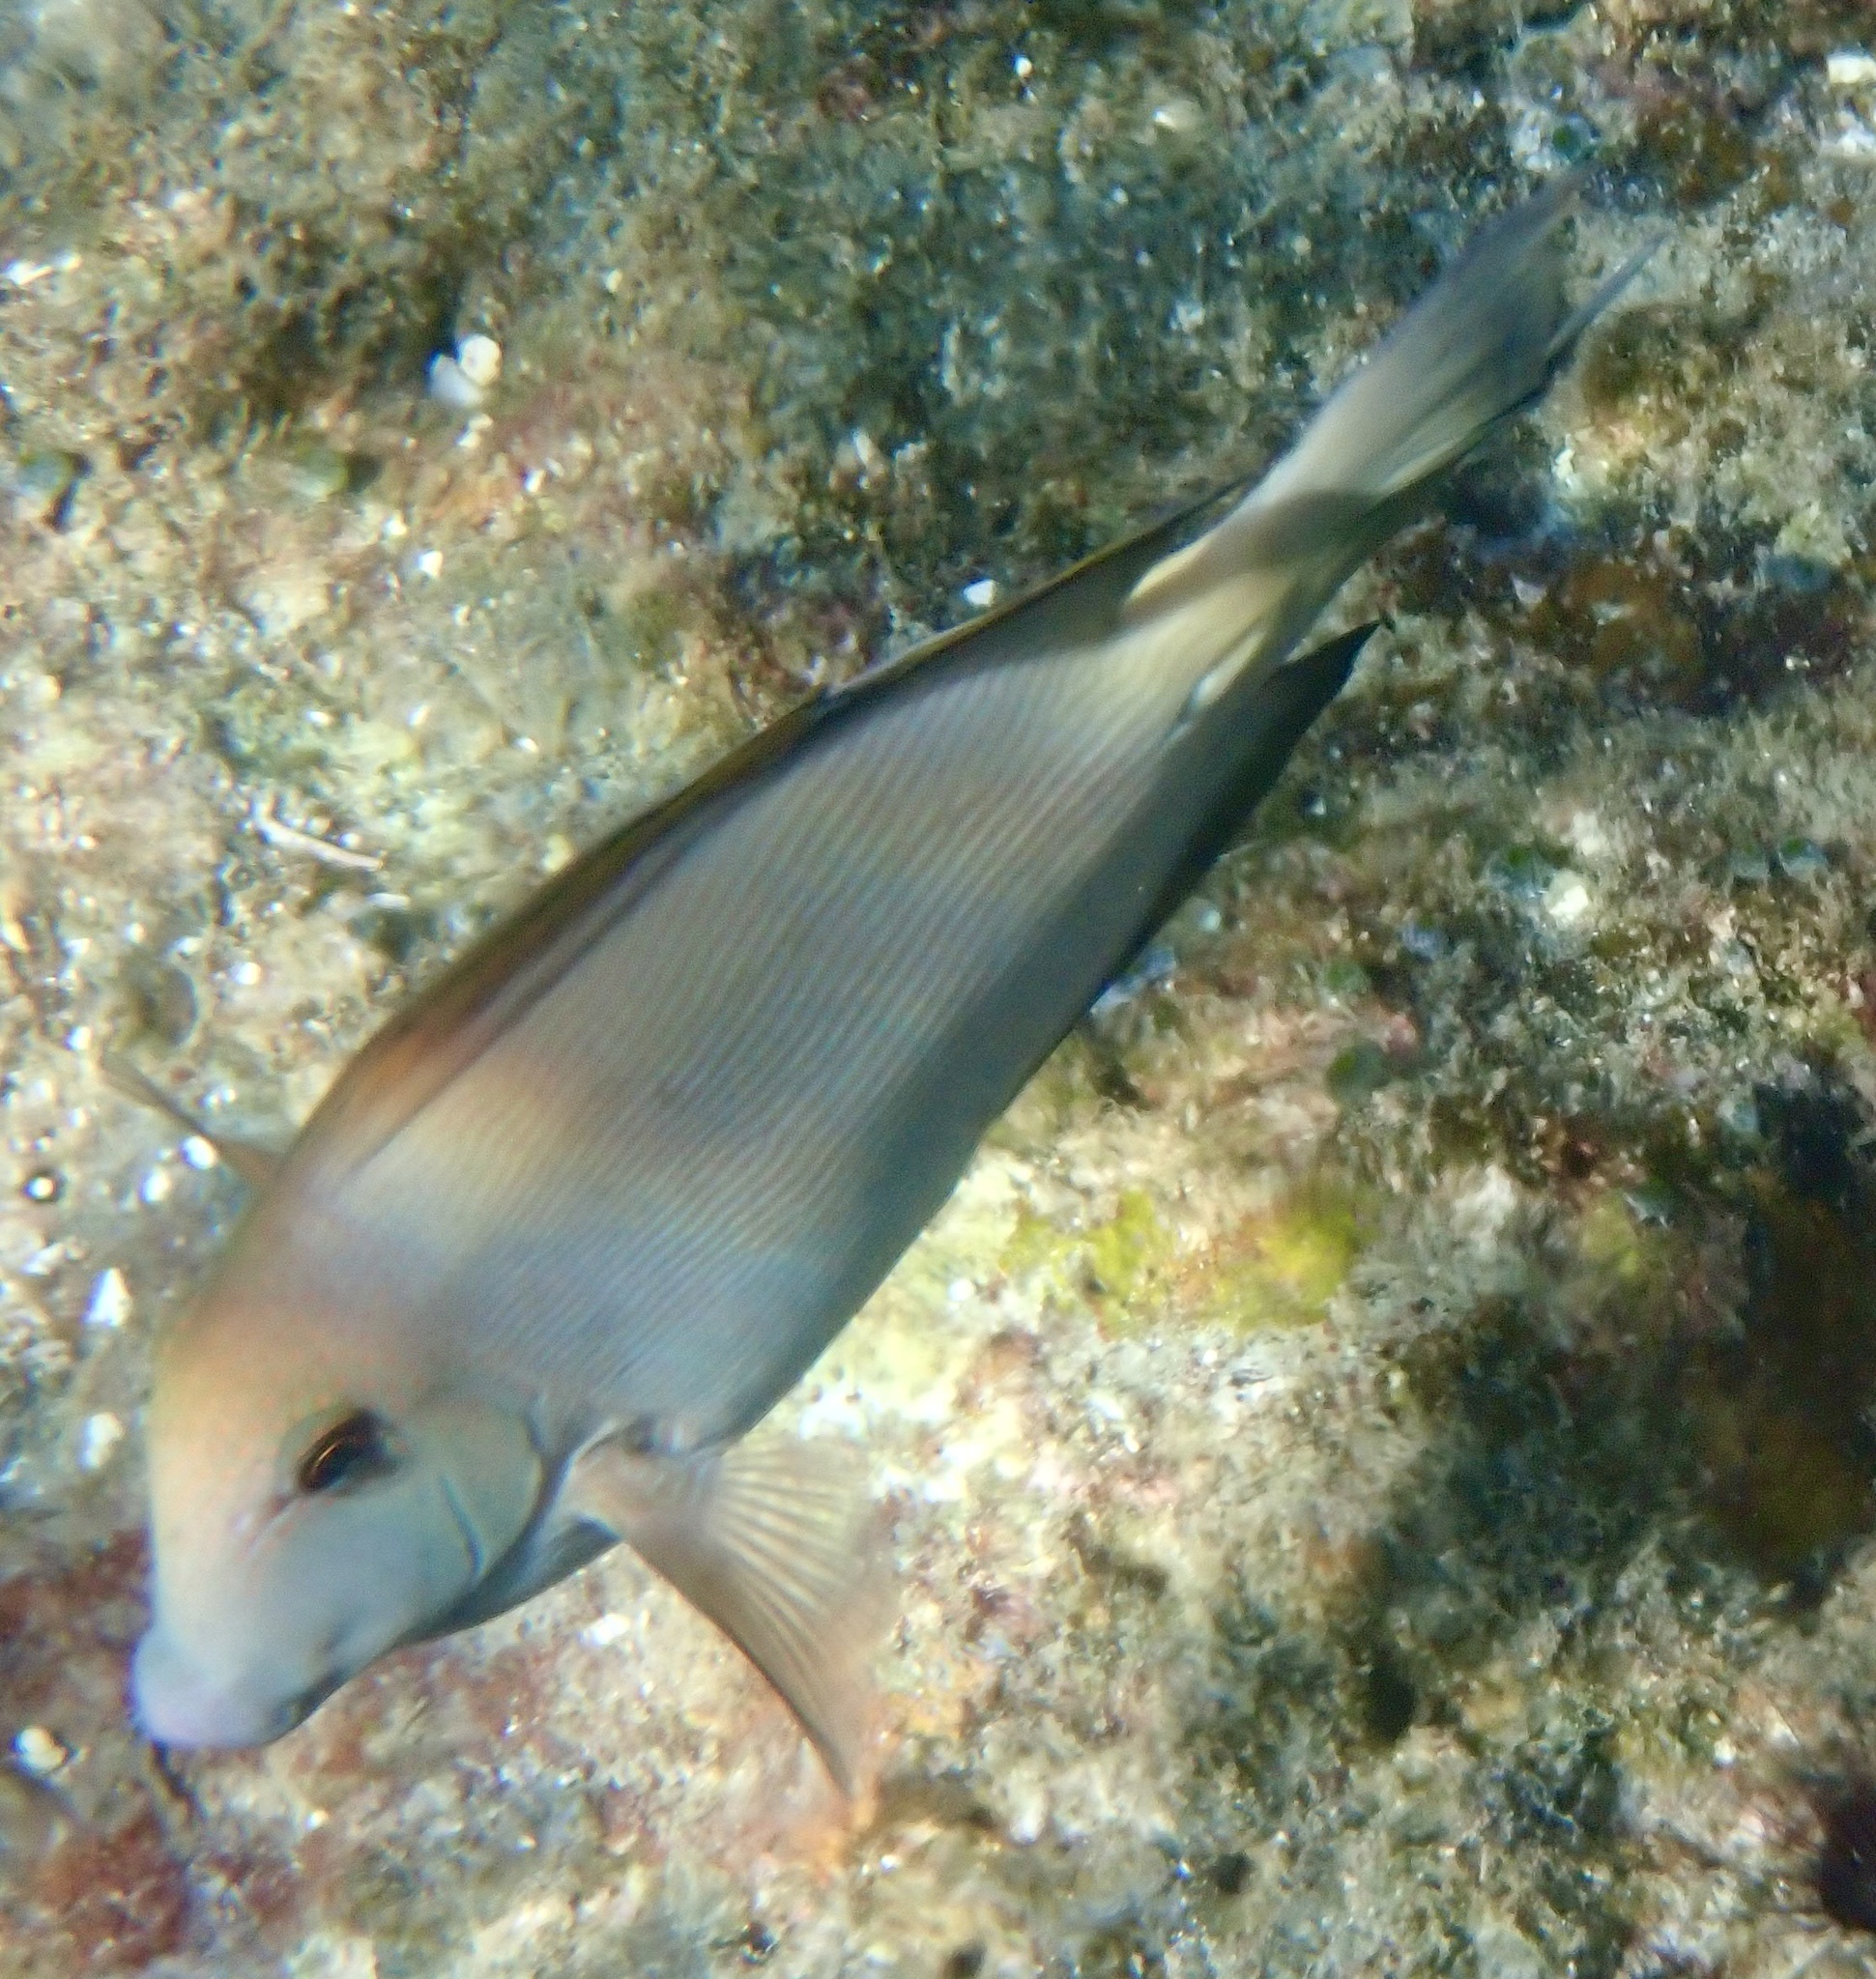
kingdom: Animalia
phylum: Chordata
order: Perciformes
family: Acanthuridae
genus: Ctenochaetus
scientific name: Ctenochaetus striatus
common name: Bristle-toothed surgeonfish
